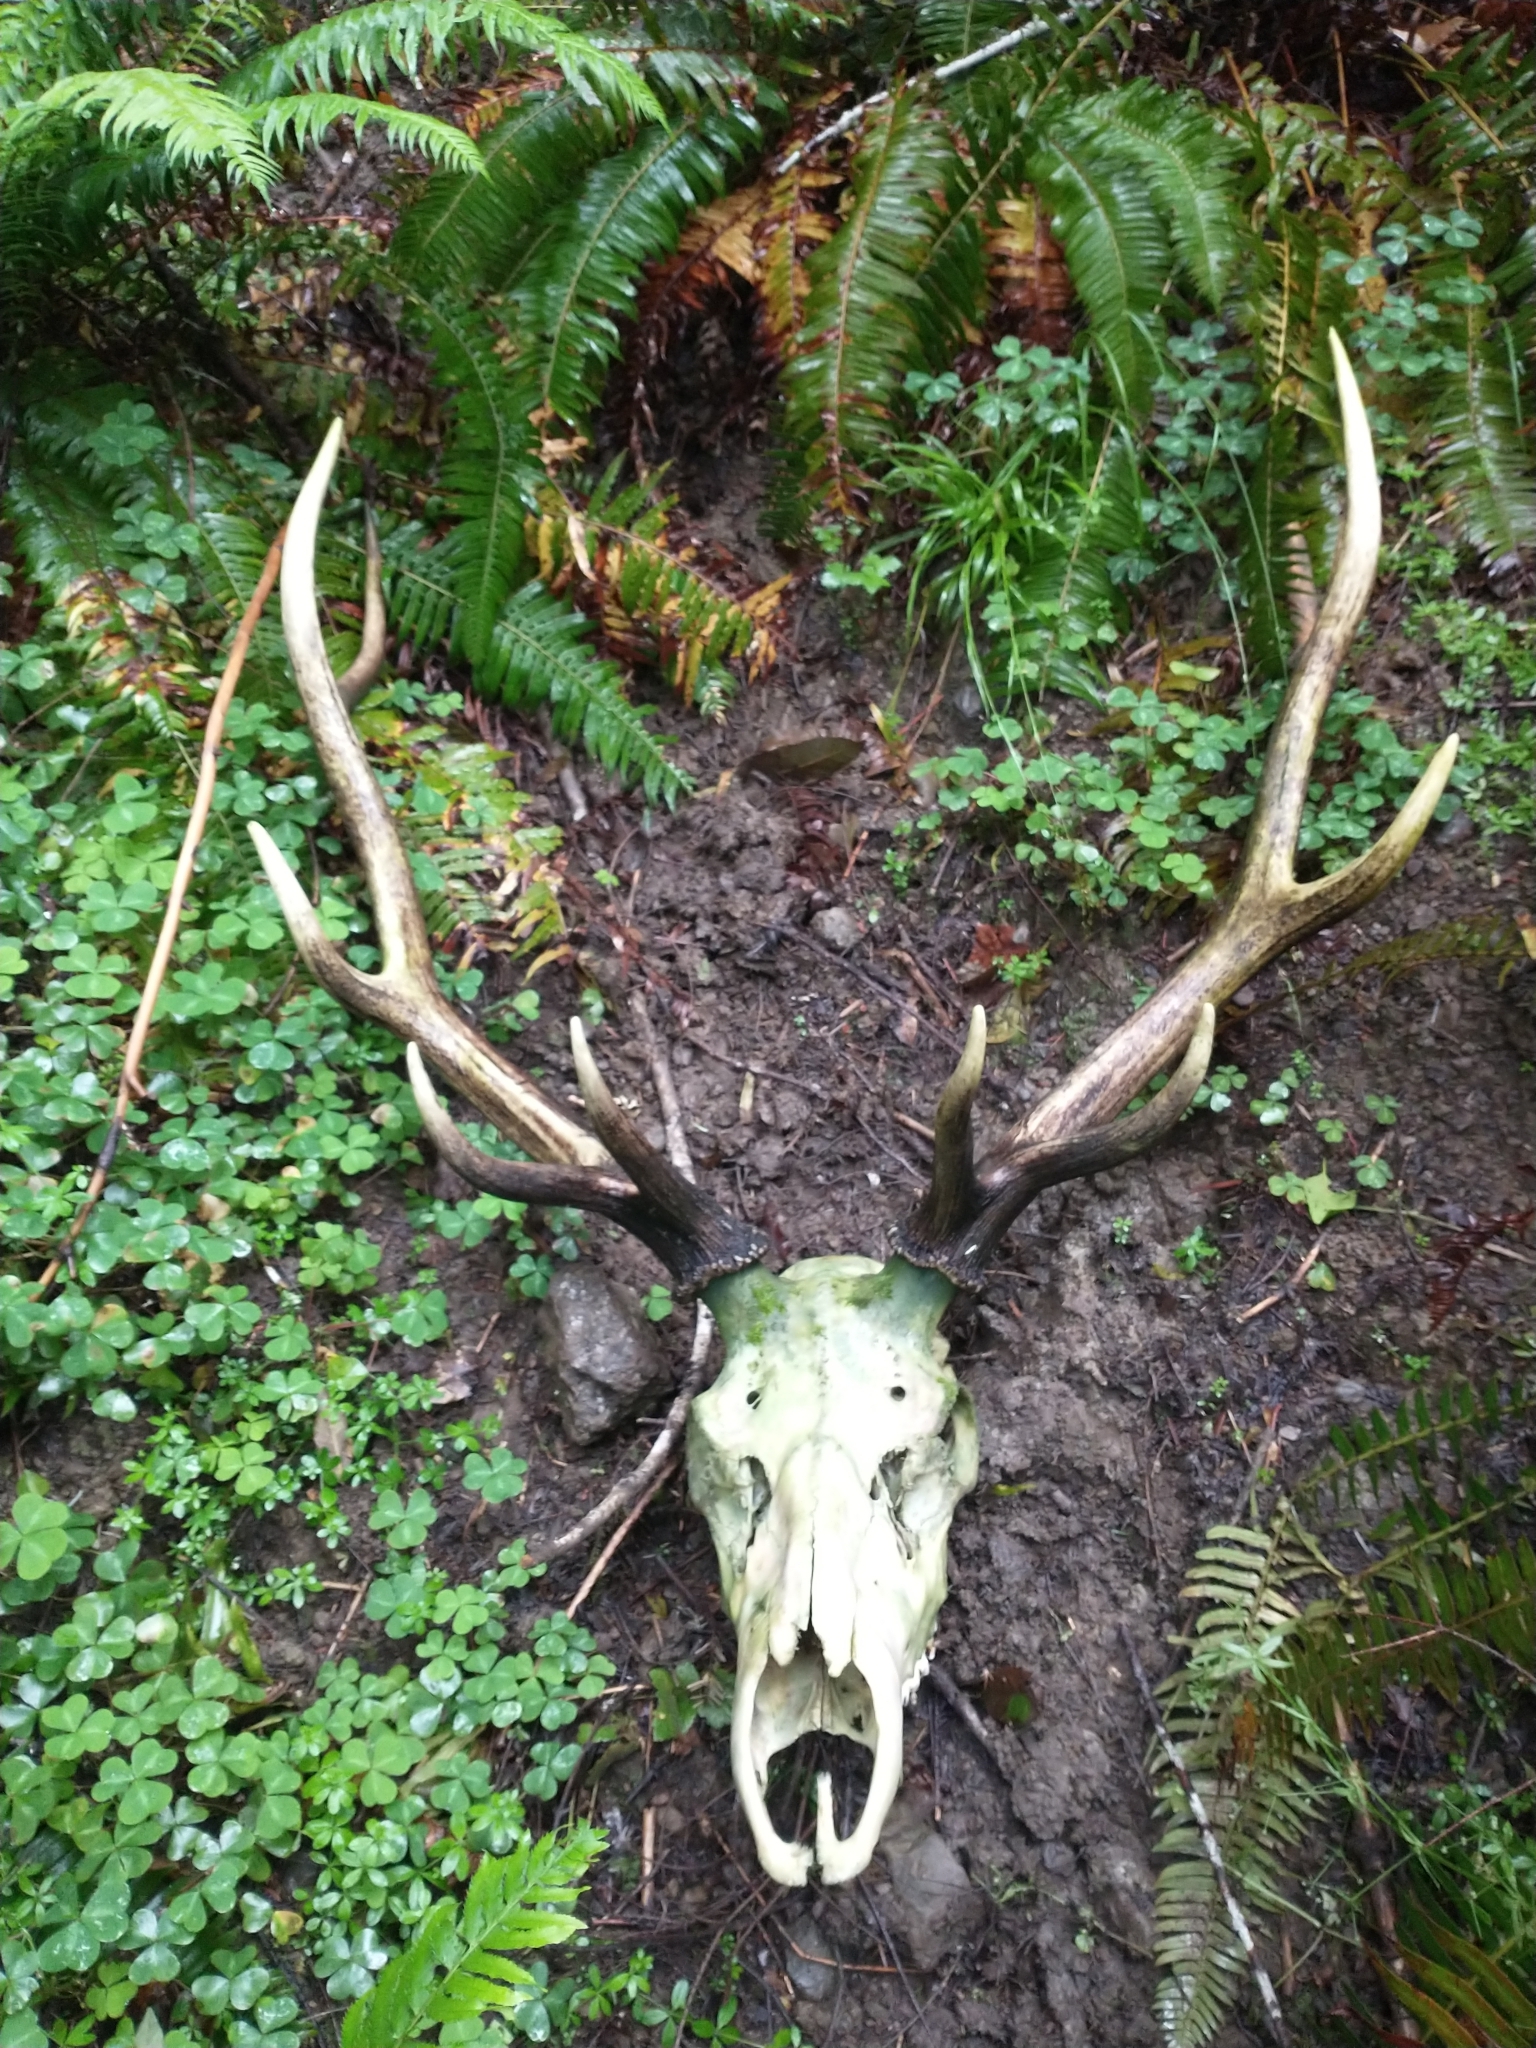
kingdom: Animalia
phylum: Chordata
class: Mammalia
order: Artiodactyla
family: Cervidae
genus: Cervus
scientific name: Cervus elaphus
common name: Red deer
